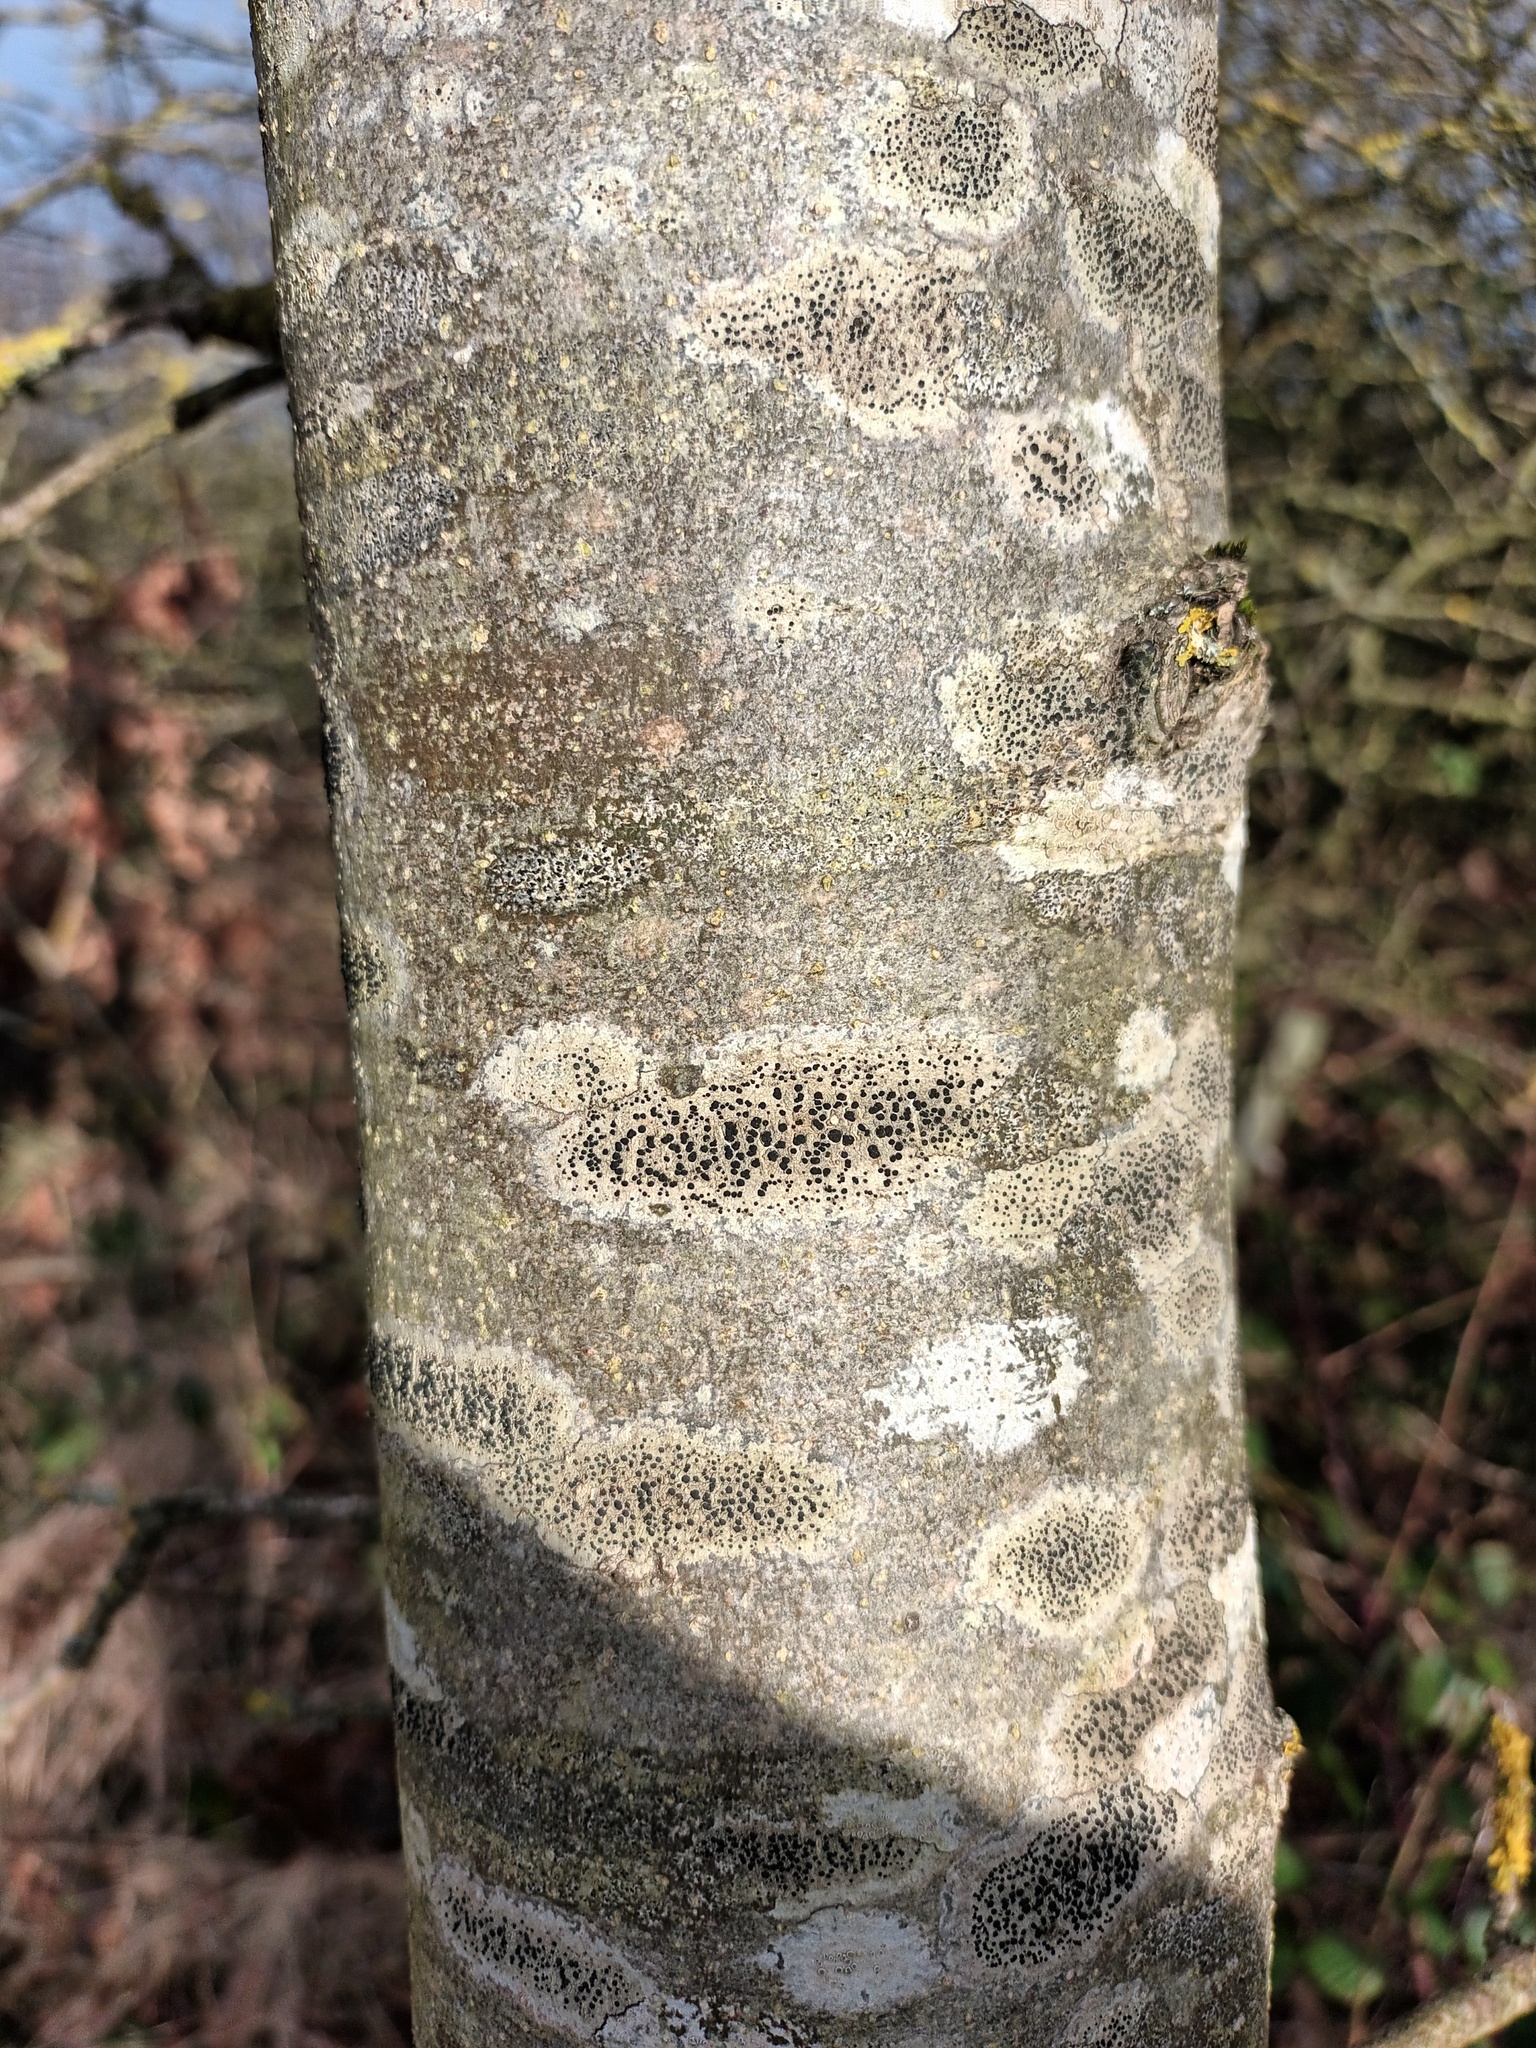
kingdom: Fungi
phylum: Ascomycota
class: Lecanoromycetes
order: Lecanorales
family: Lecanoraceae
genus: Lecidella
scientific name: Lecidella elaeochroma
